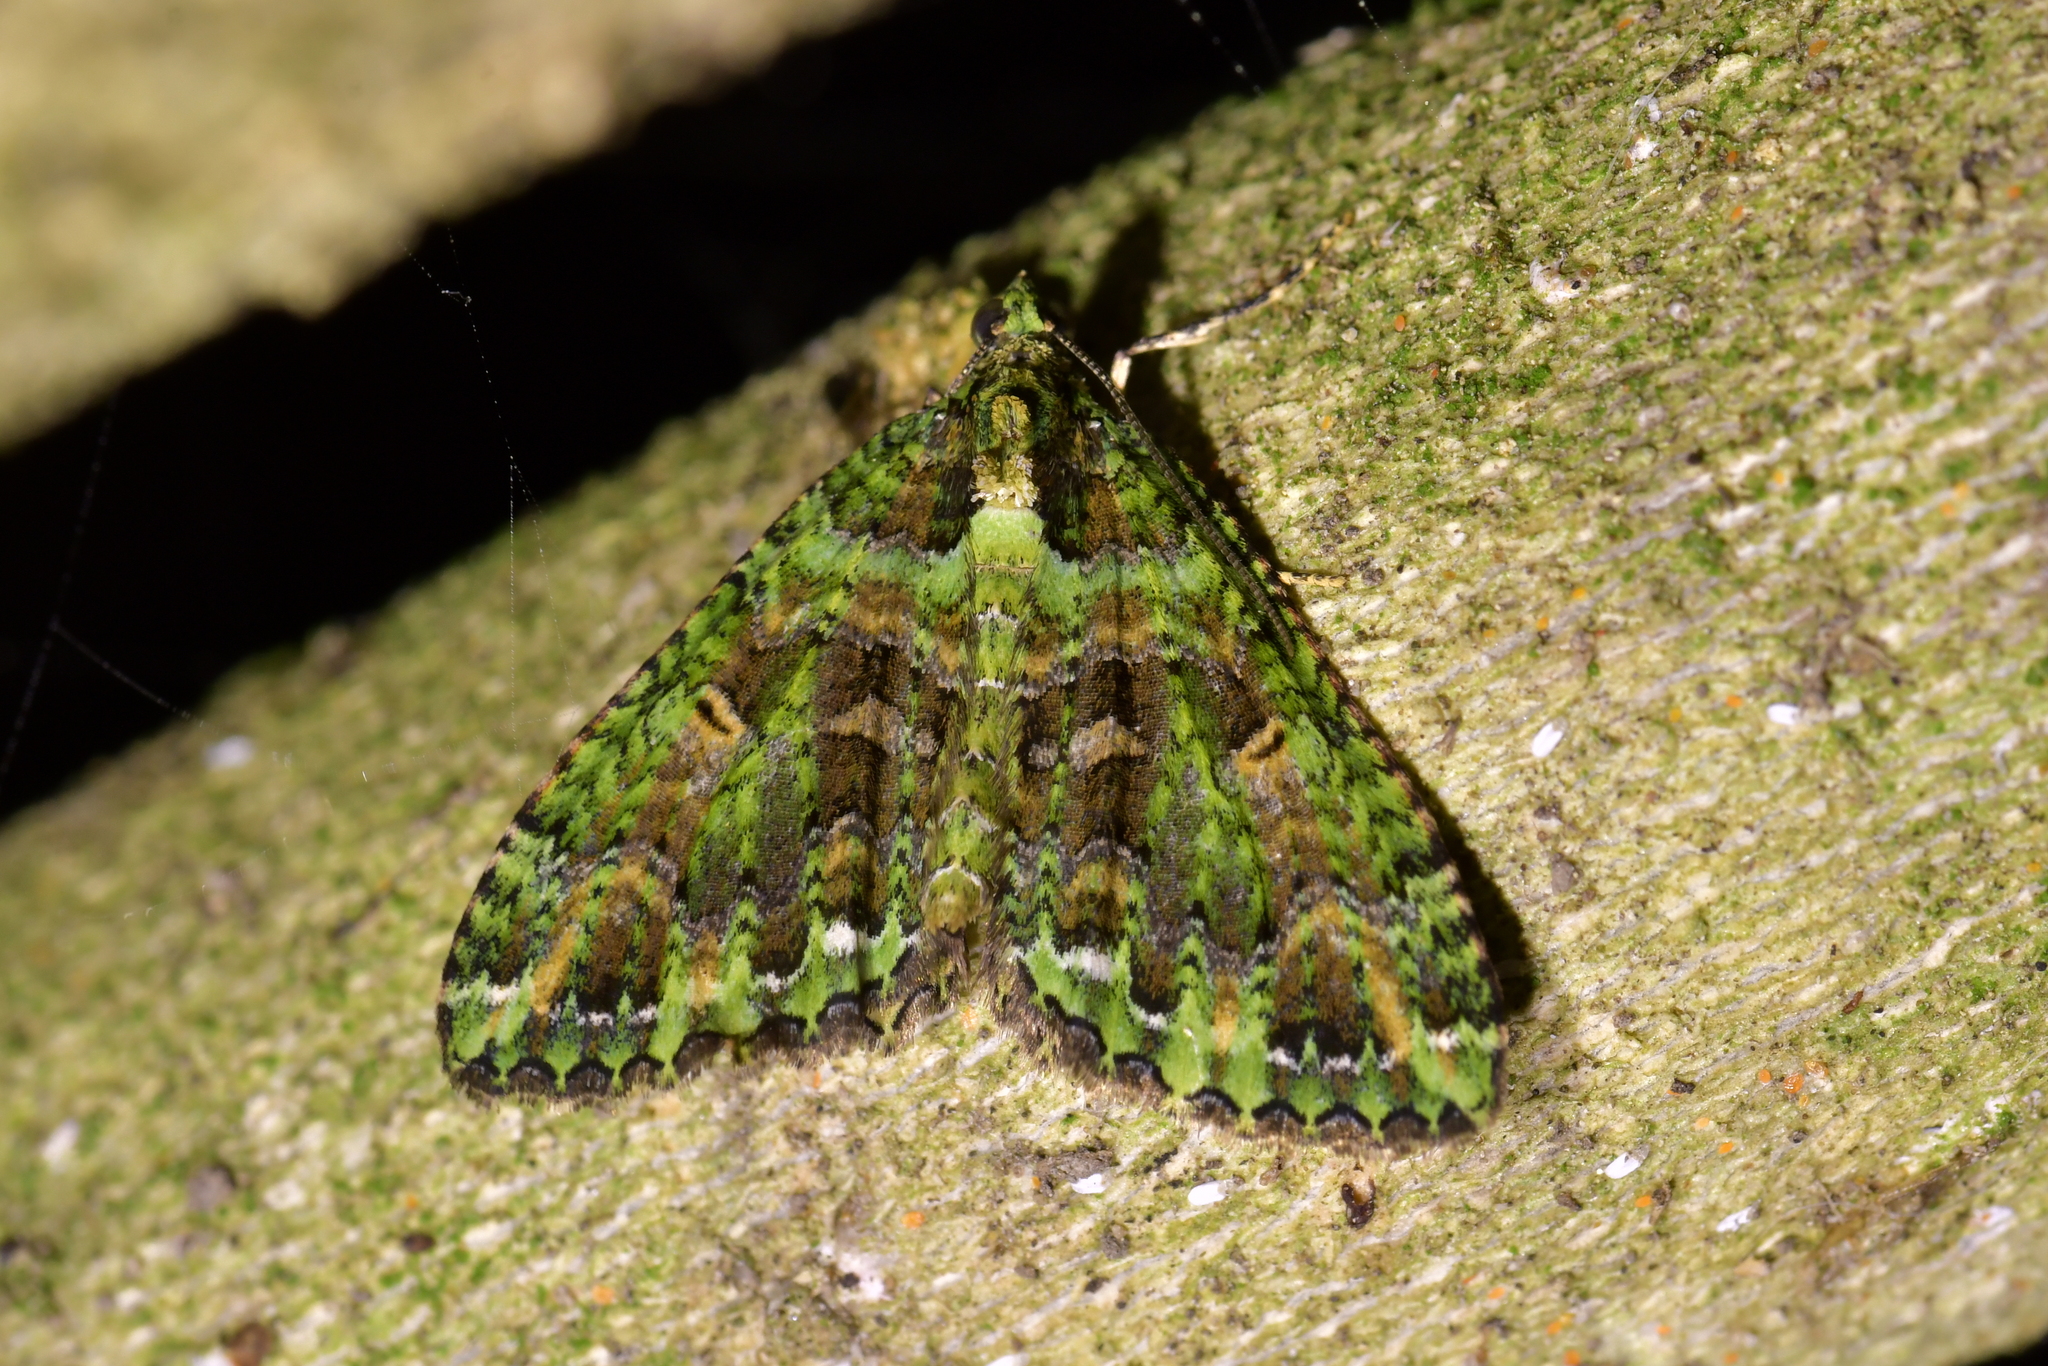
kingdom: Animalia
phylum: Arthropoda
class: Insecta
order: Lepidoptera
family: Geometridae
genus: Austrocidaria
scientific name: Austrocidaria similata
